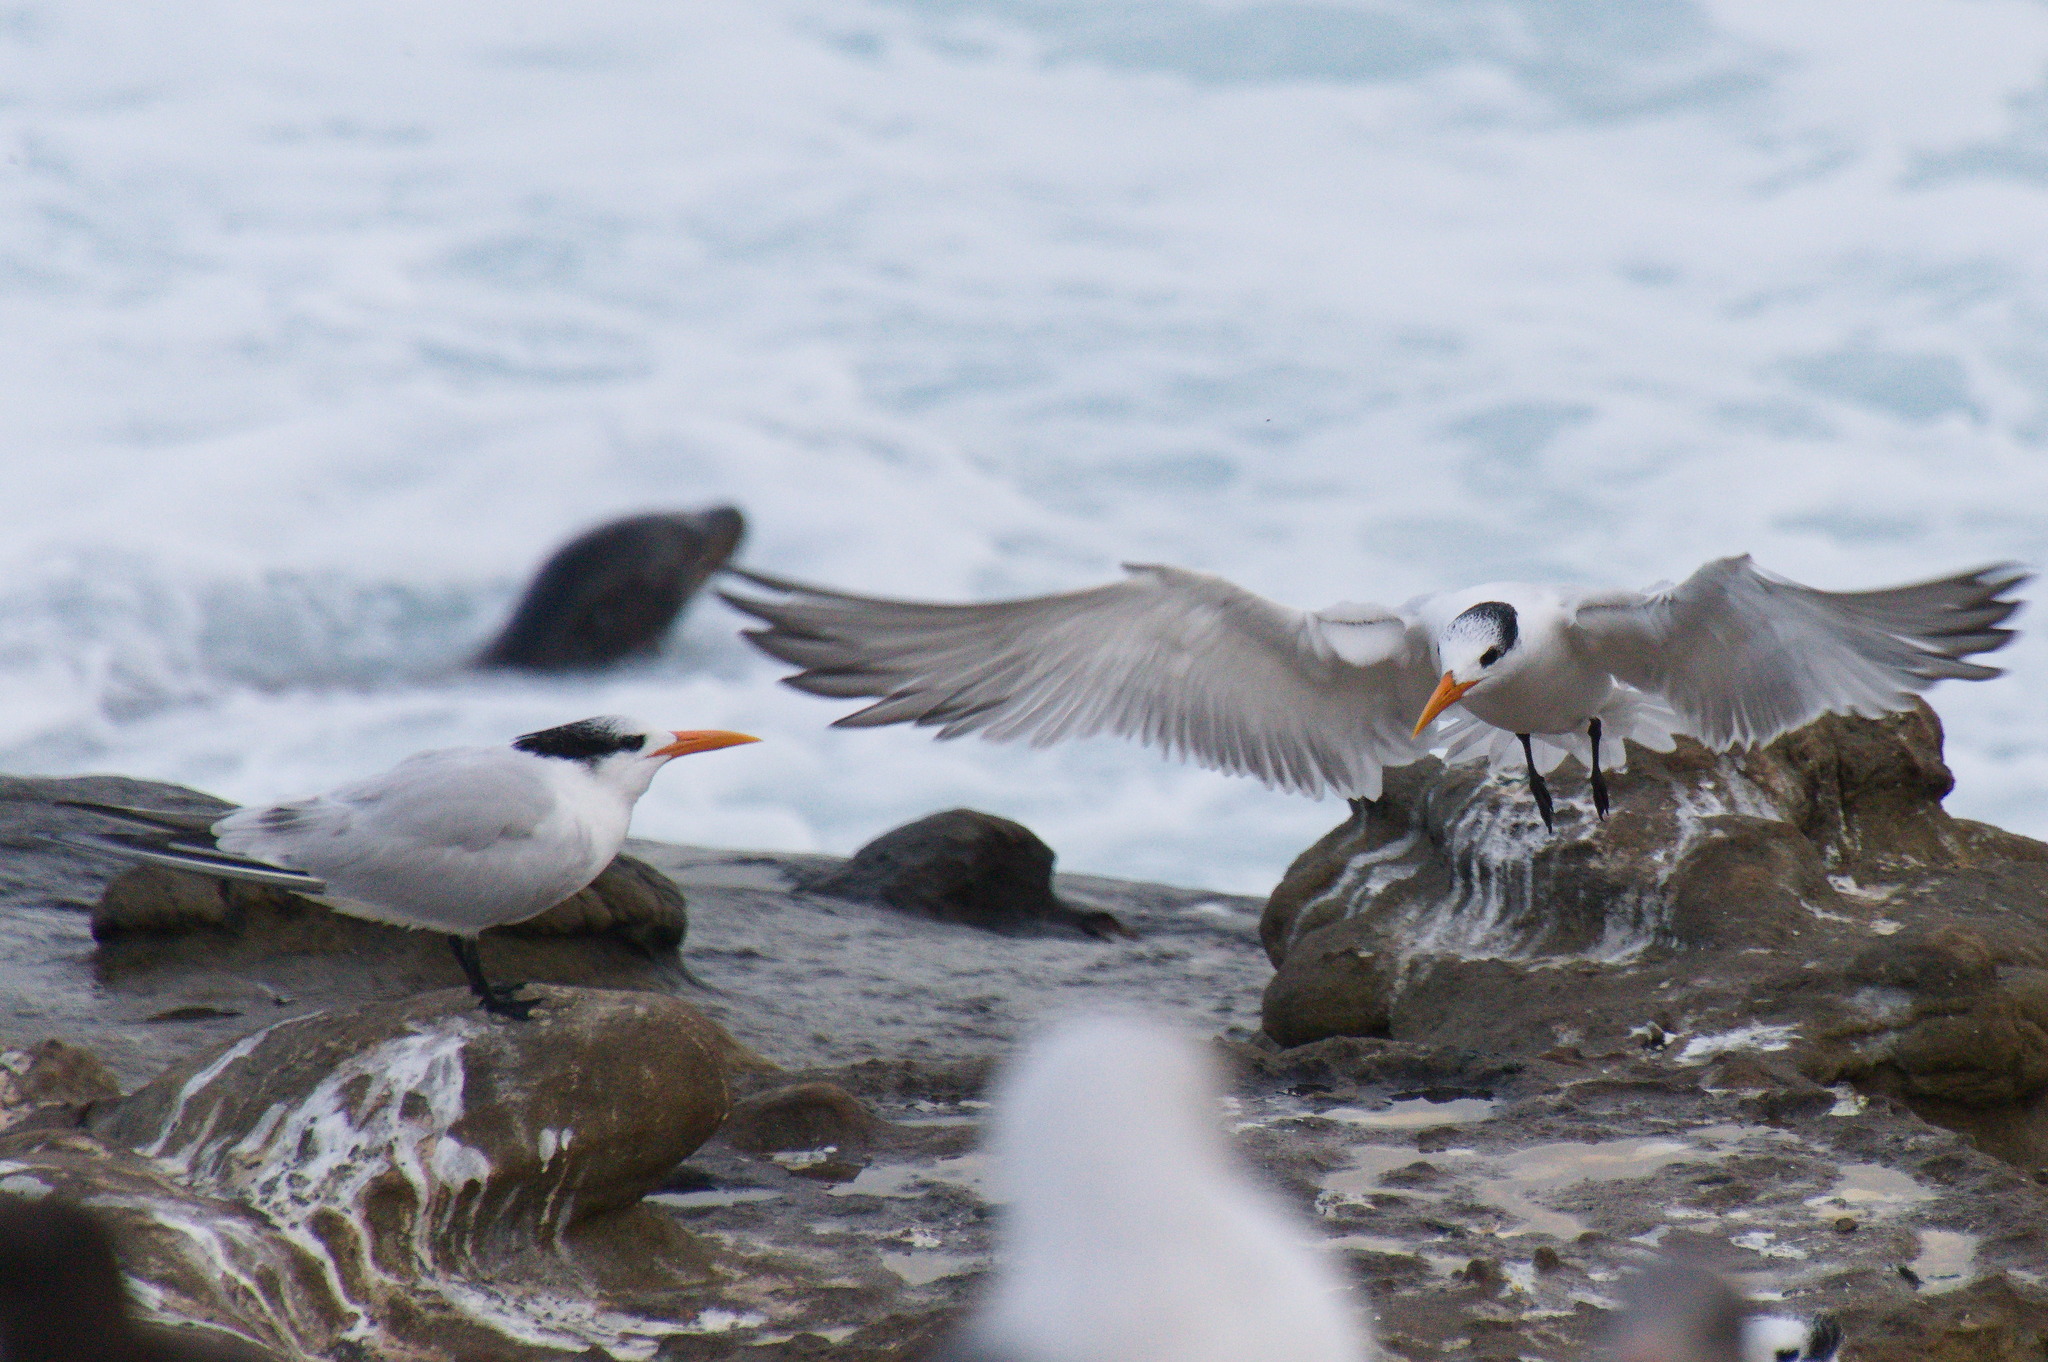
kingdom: Animalia
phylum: Chordata
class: Aves
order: Charadriiformes
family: Laridae
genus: Thalasseus
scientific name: Thalasseus maximus
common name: Royal tern
